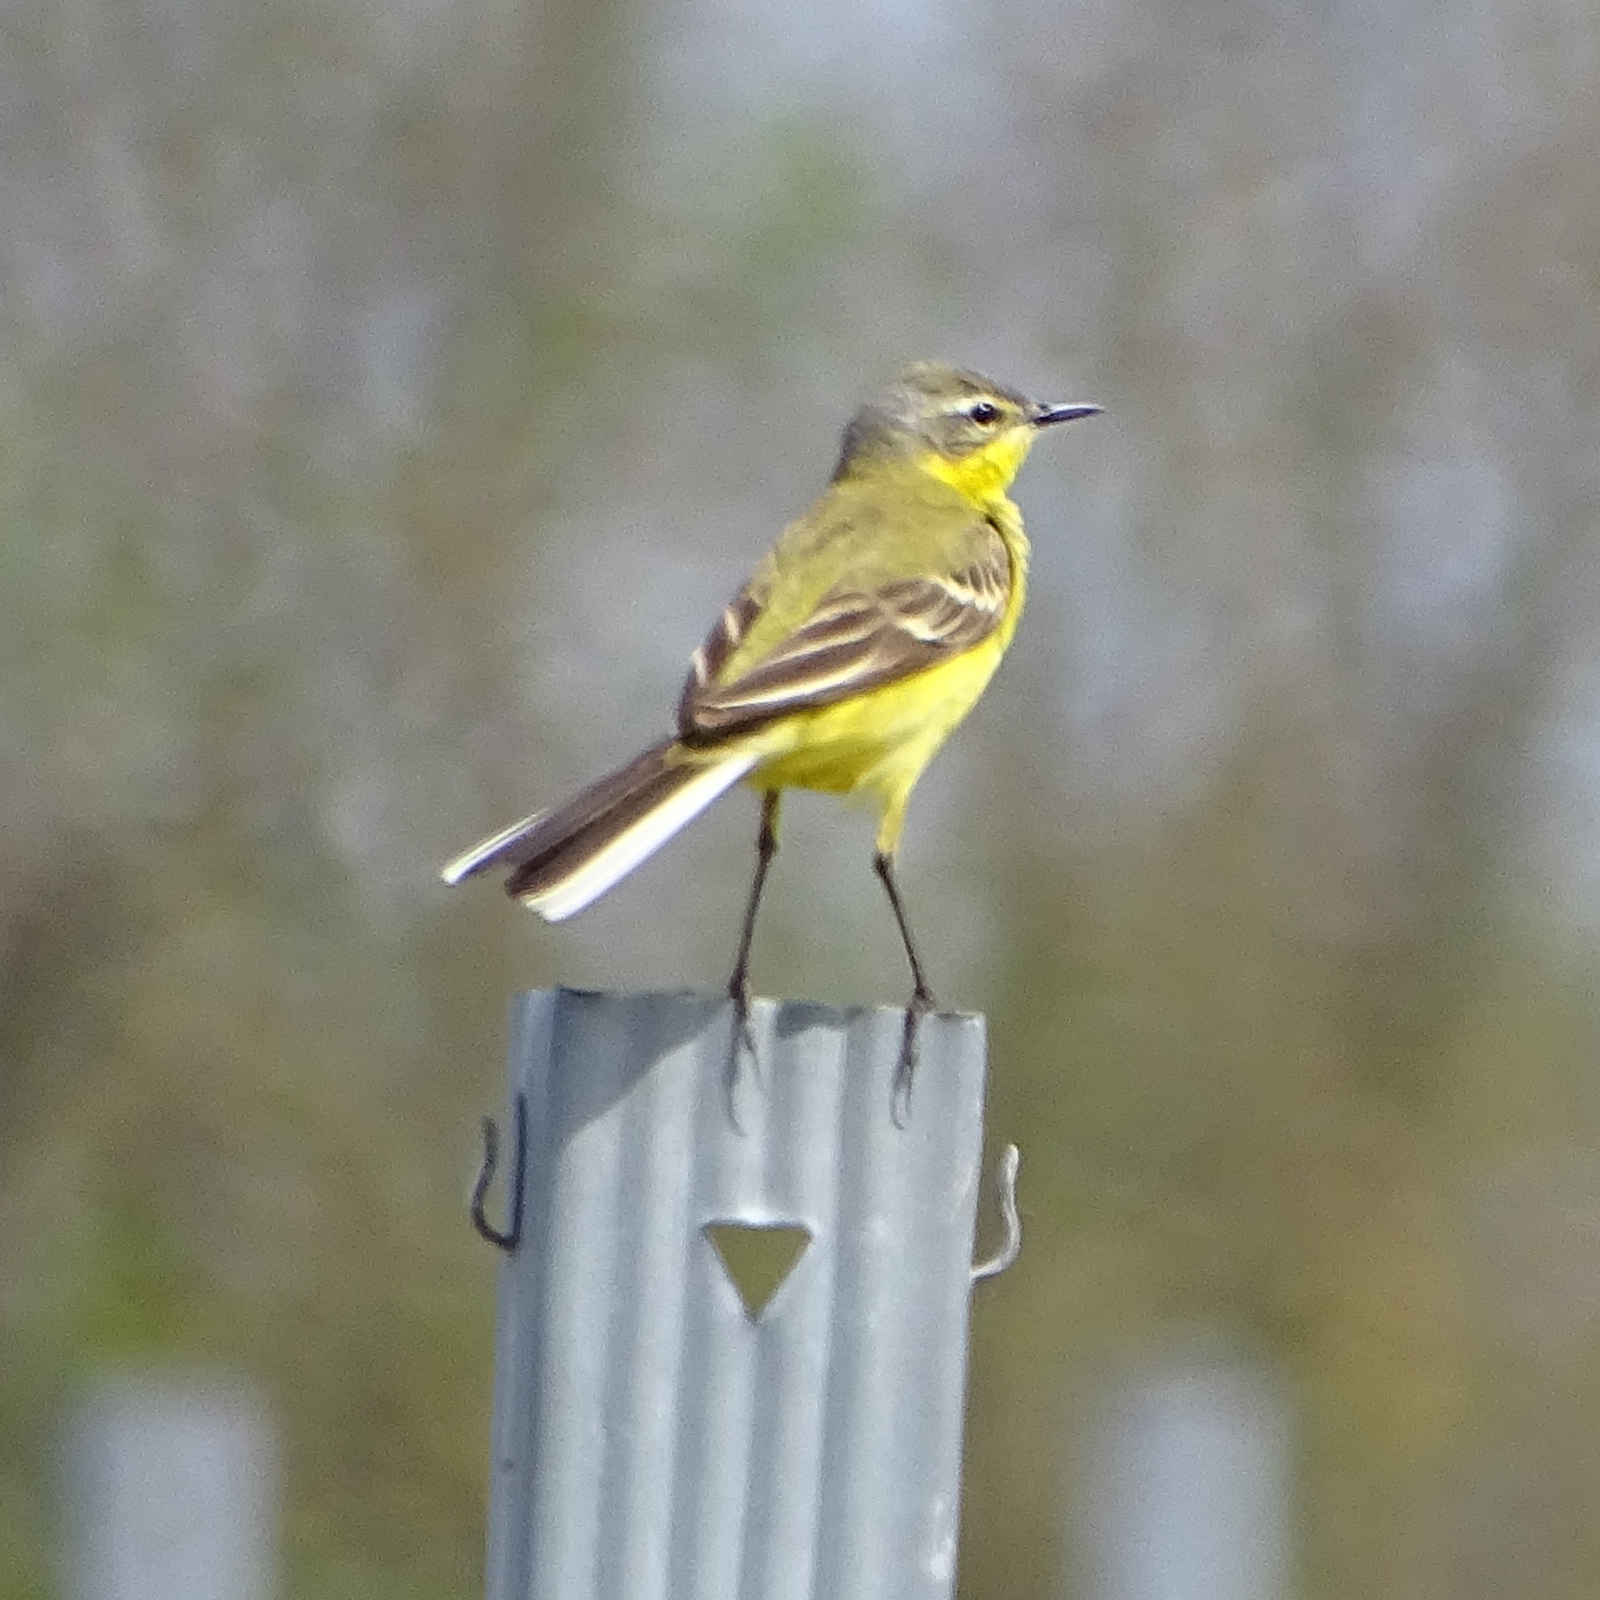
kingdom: Animalia
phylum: Chordata
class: Aves
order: Passeriformes
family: Motacillidae
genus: Motacilla
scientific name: Motacilla flava
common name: Western yellow wagtail
